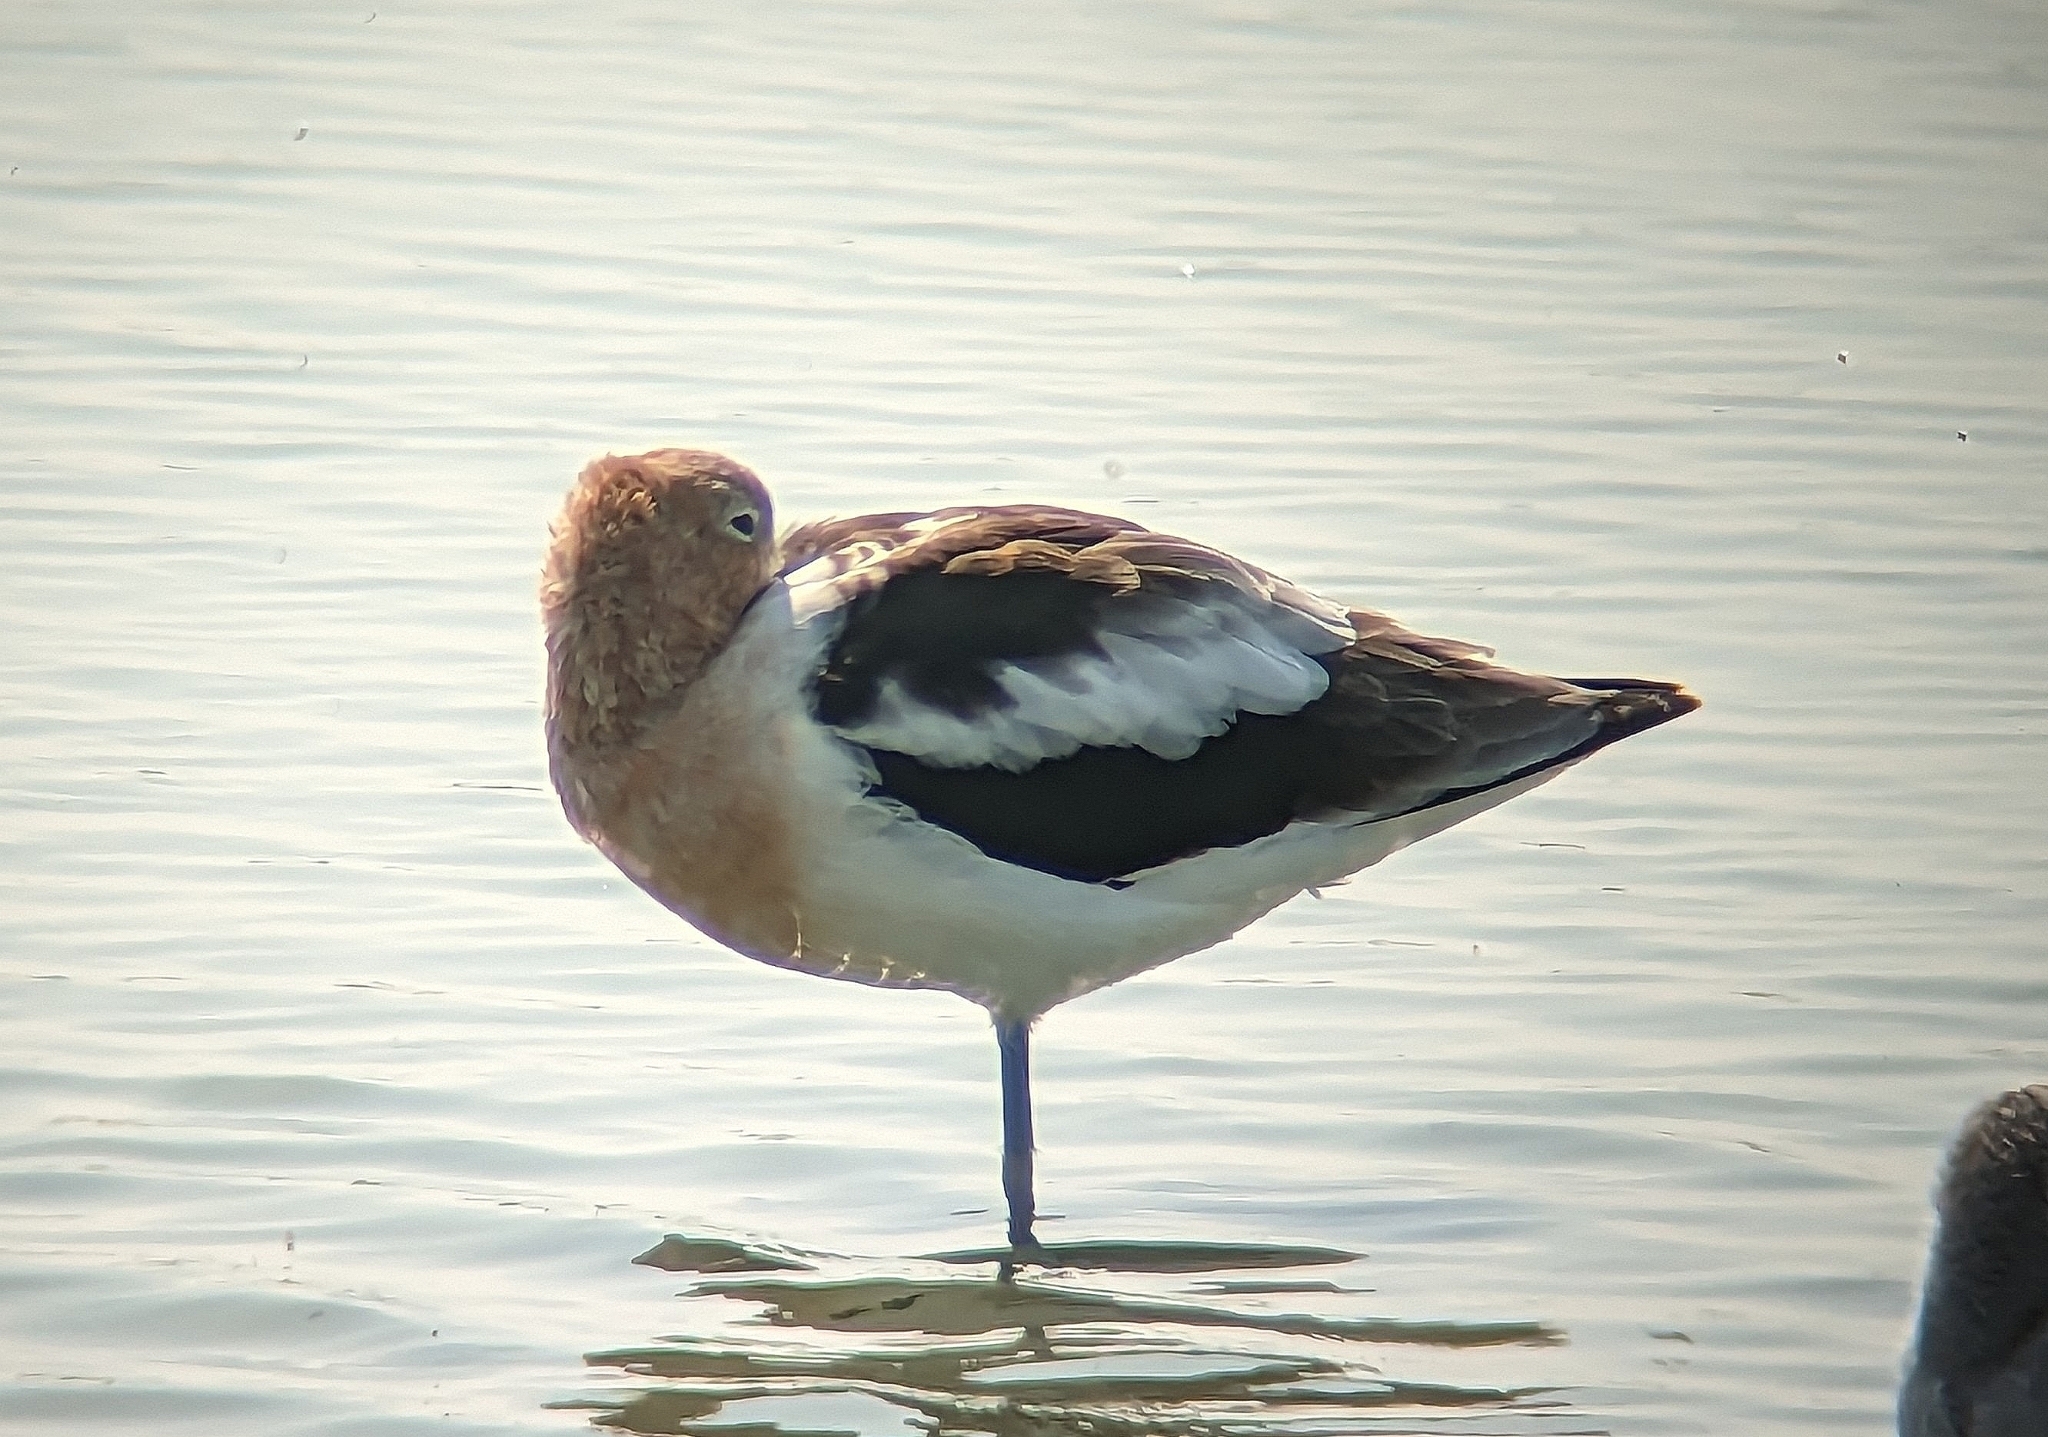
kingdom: Animalia
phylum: Chordata
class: Aves
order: Charadriiformes
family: Recurvirostridae
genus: Recurvirostra
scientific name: Recurvirostra americana
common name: American avocet
